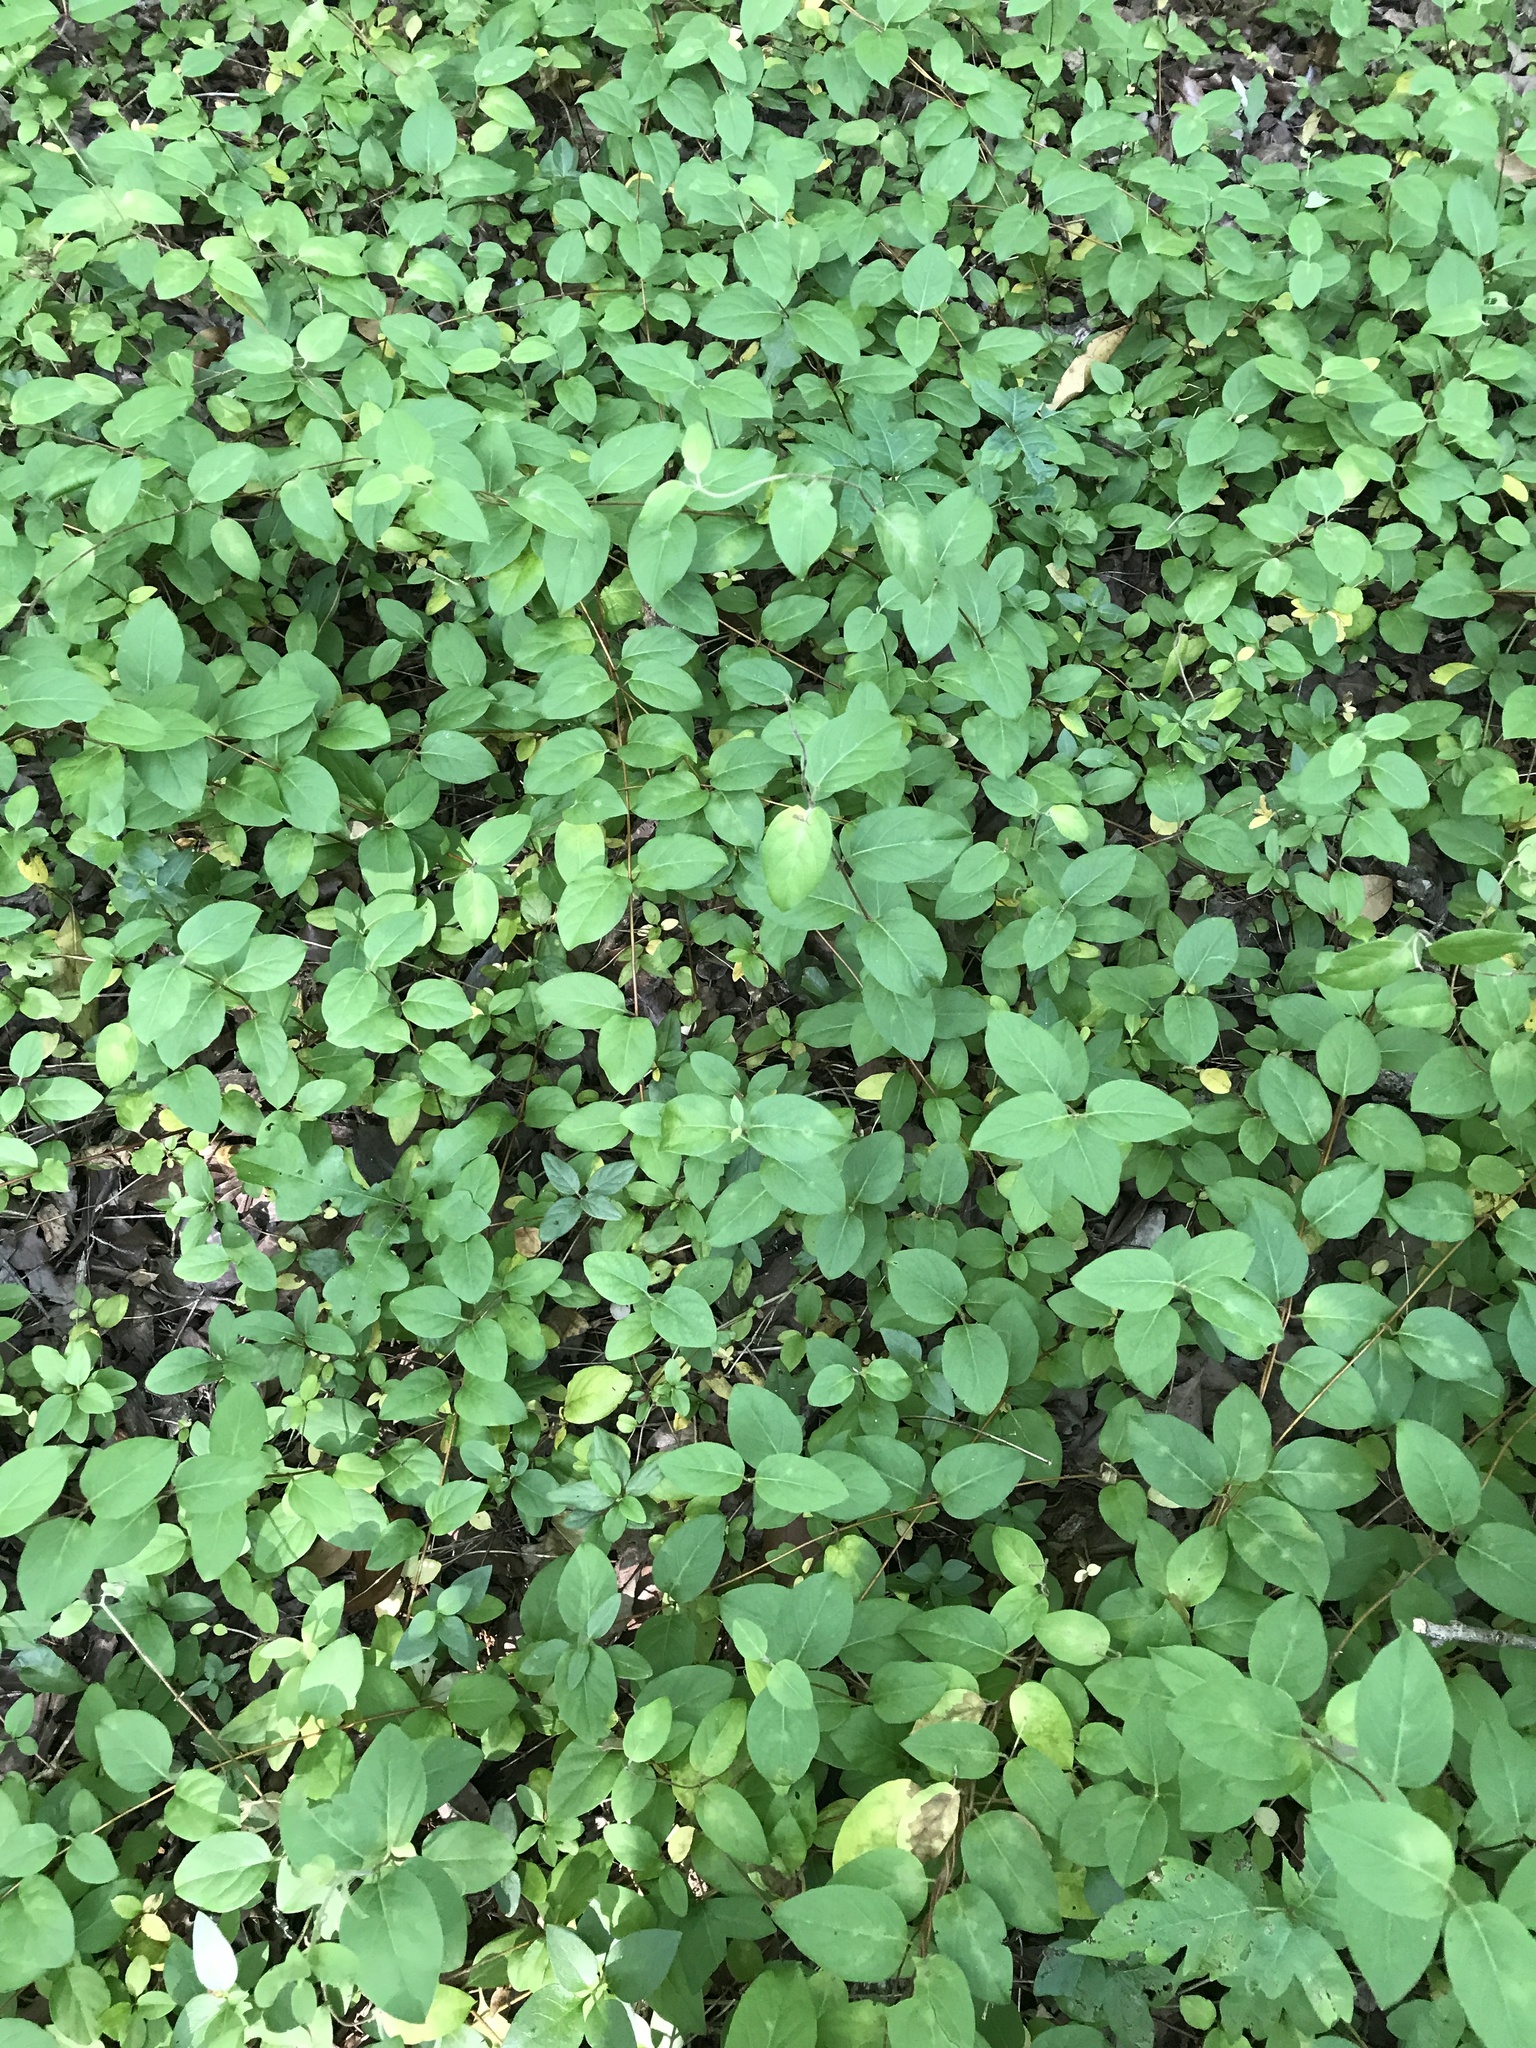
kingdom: Plantae
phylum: Tracheophyta
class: Magnoliopsida
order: Dipsacales
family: Caprifoliaceae
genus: Lonicera
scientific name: Lonicera japonica
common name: Japanese honeysuckle
